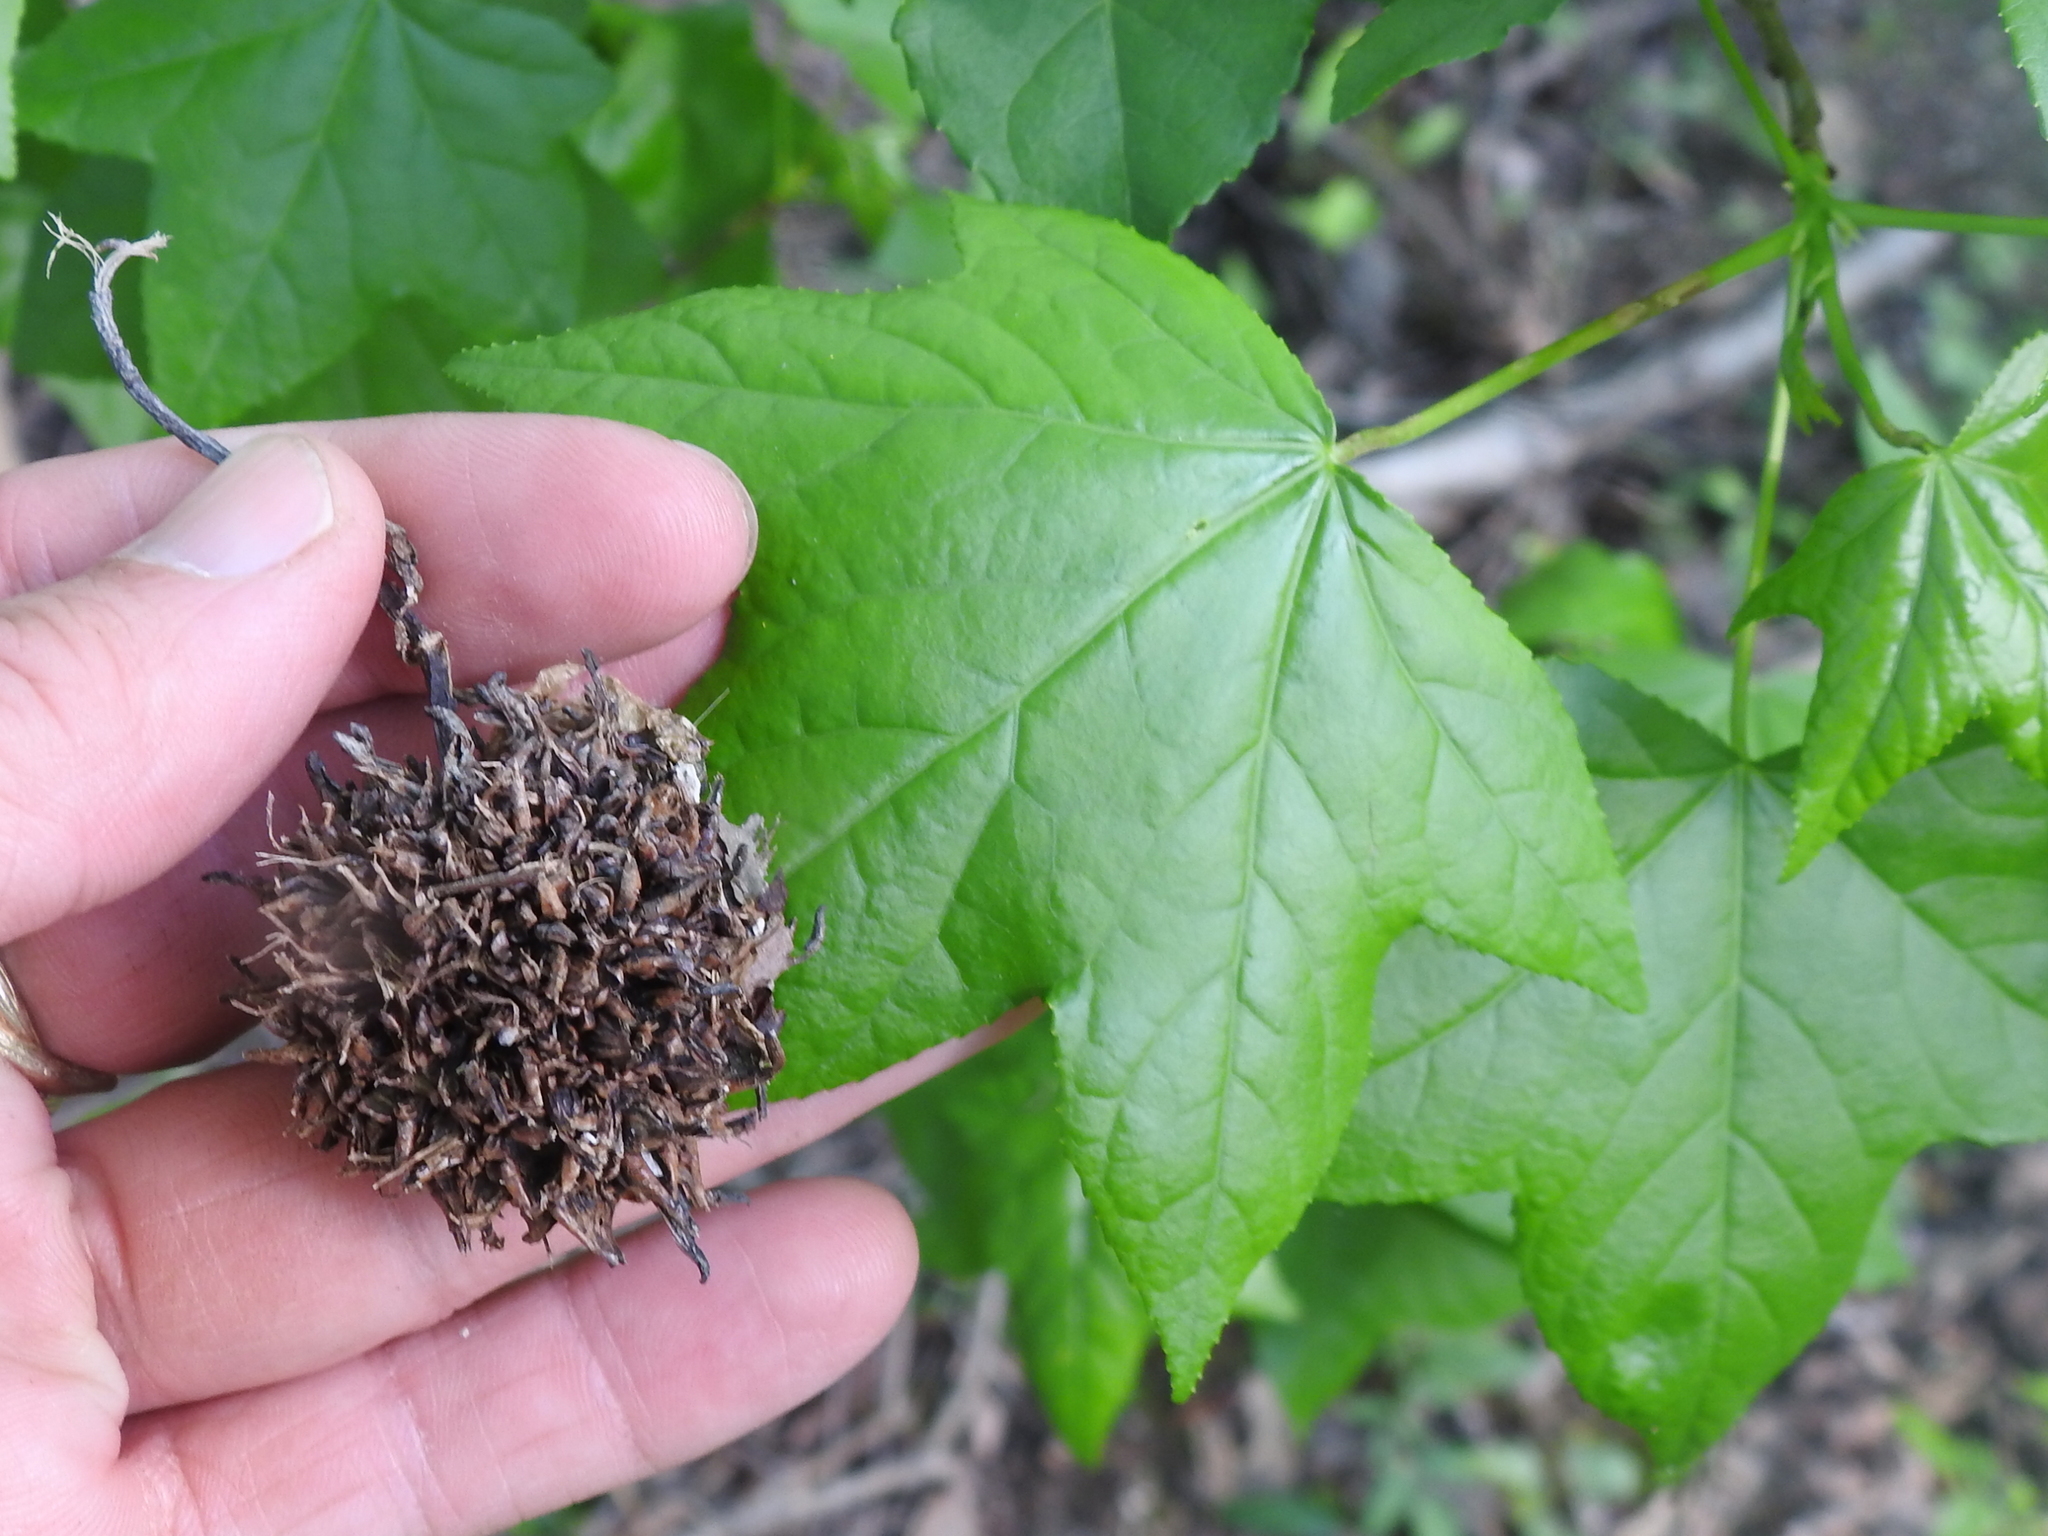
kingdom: Plantae
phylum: Tracheophyta
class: Magnoliopsida
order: Saxifragales
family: Altingiaceae
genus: Liquidambar
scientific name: Liquidambar styraciflua
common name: Sweet gum
